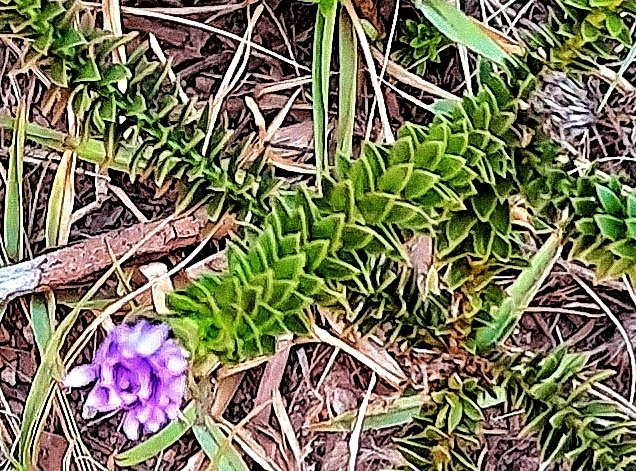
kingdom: Plantae
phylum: Tracheophyta
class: Magnoliopsida
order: Asterales
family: Asteraceae
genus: Felicia
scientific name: Felicia echinata
